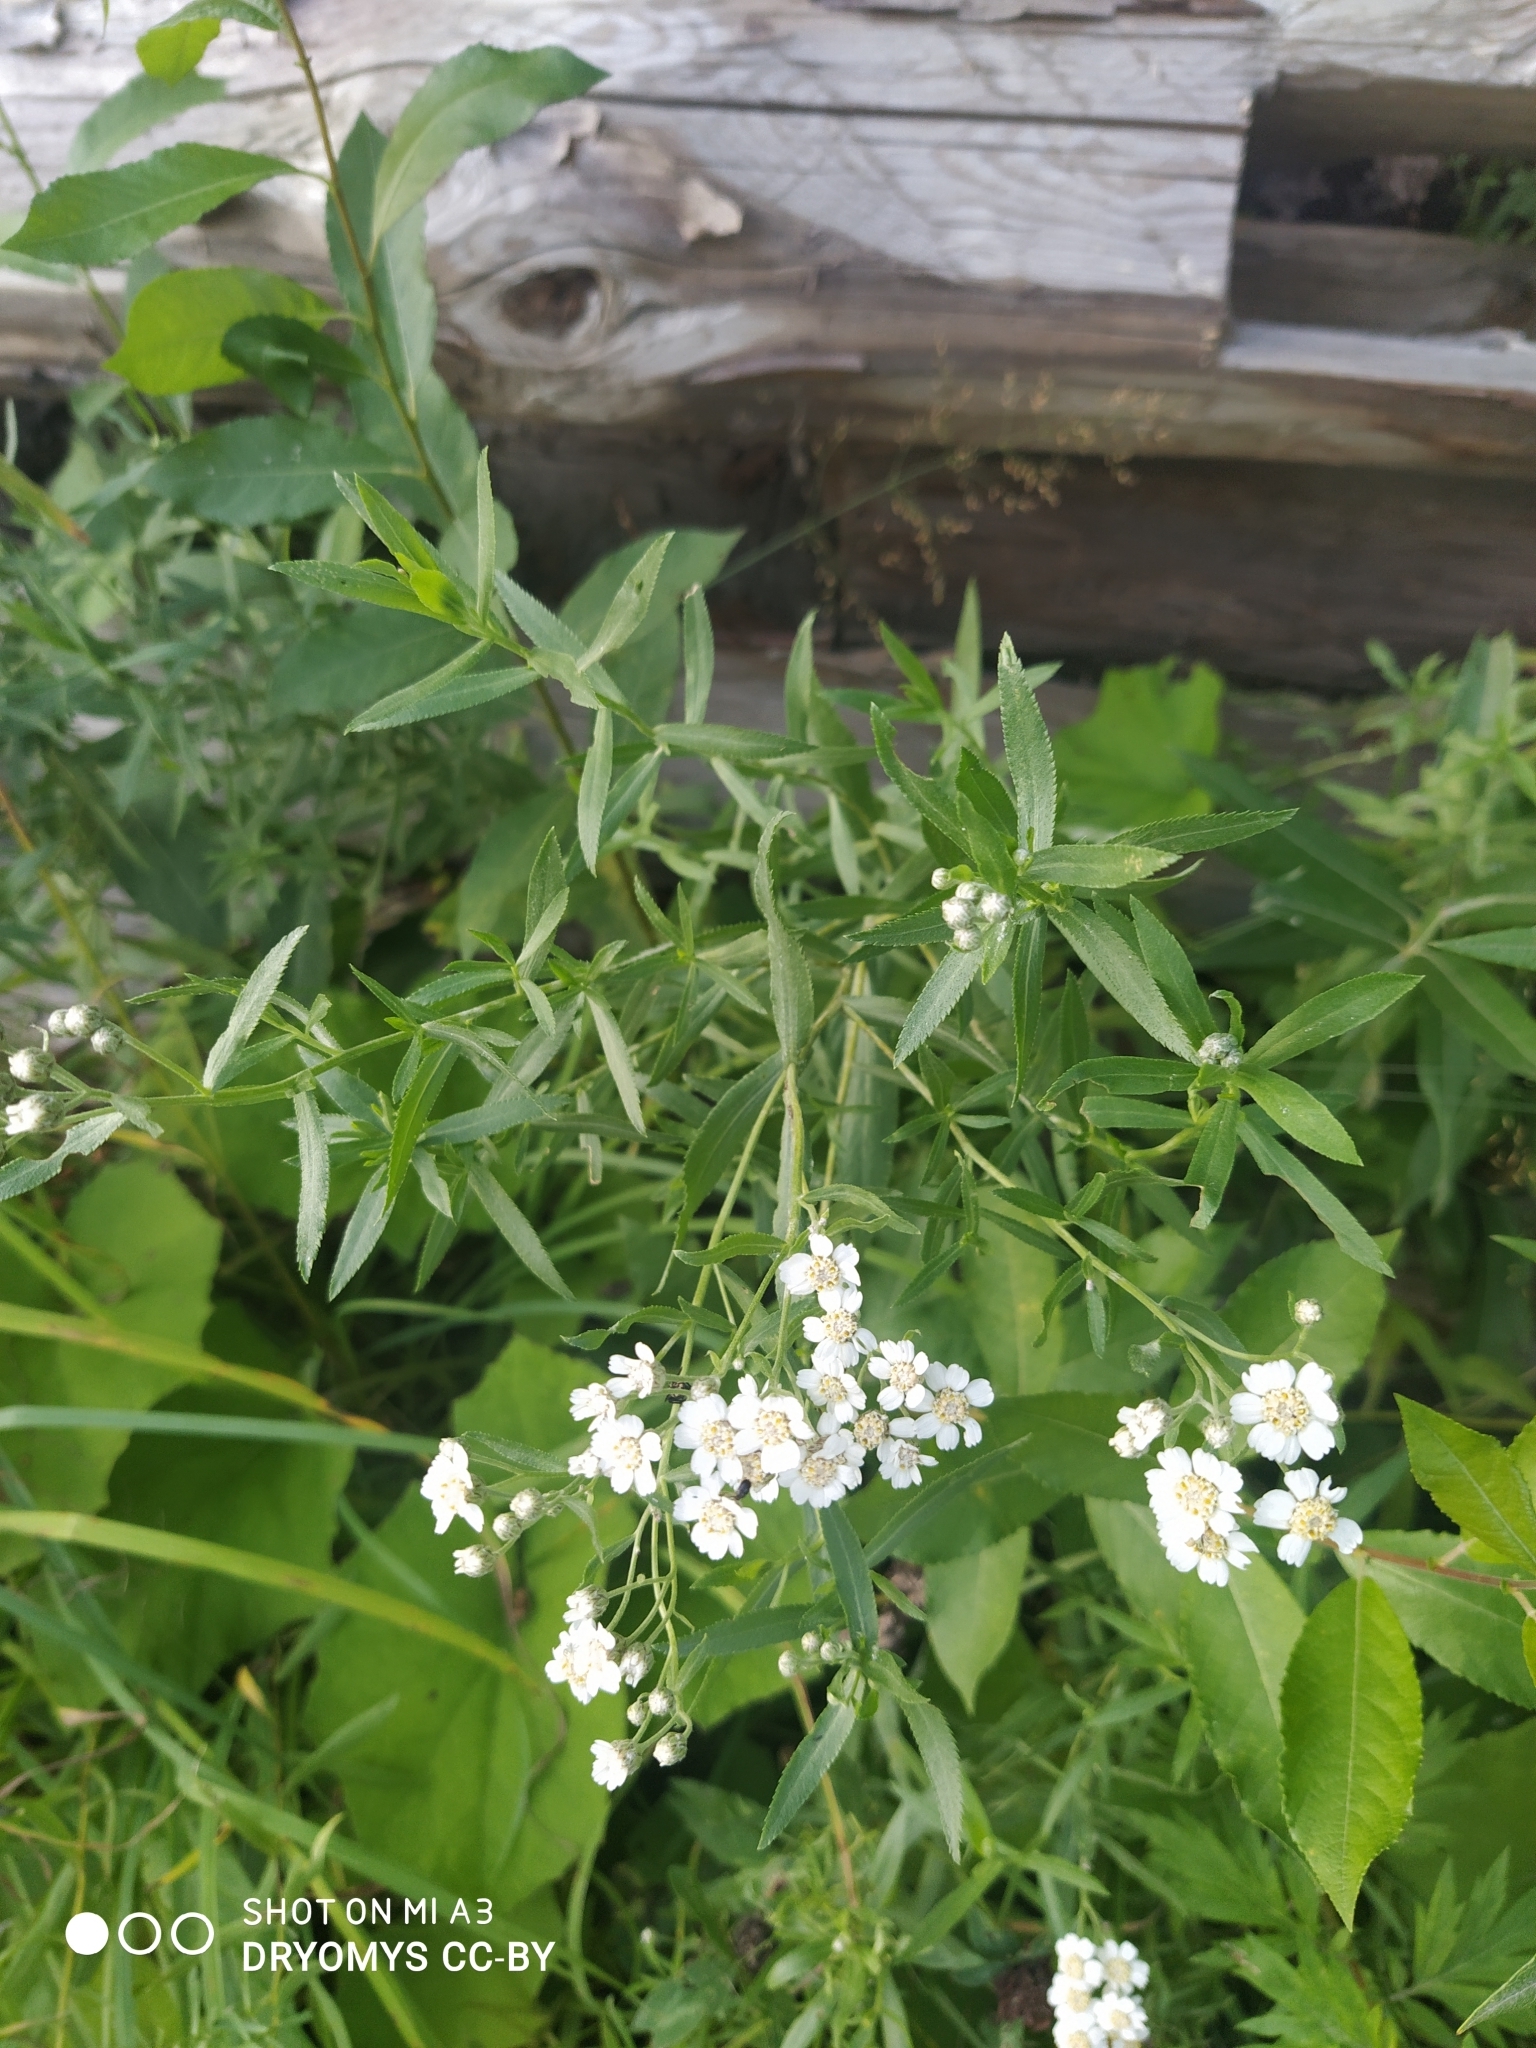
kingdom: Plantae
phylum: Tracheophyta
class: Magnoliopsida
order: Asterales
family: Asteraceae
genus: Achillea
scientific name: Achillea salicifolia
